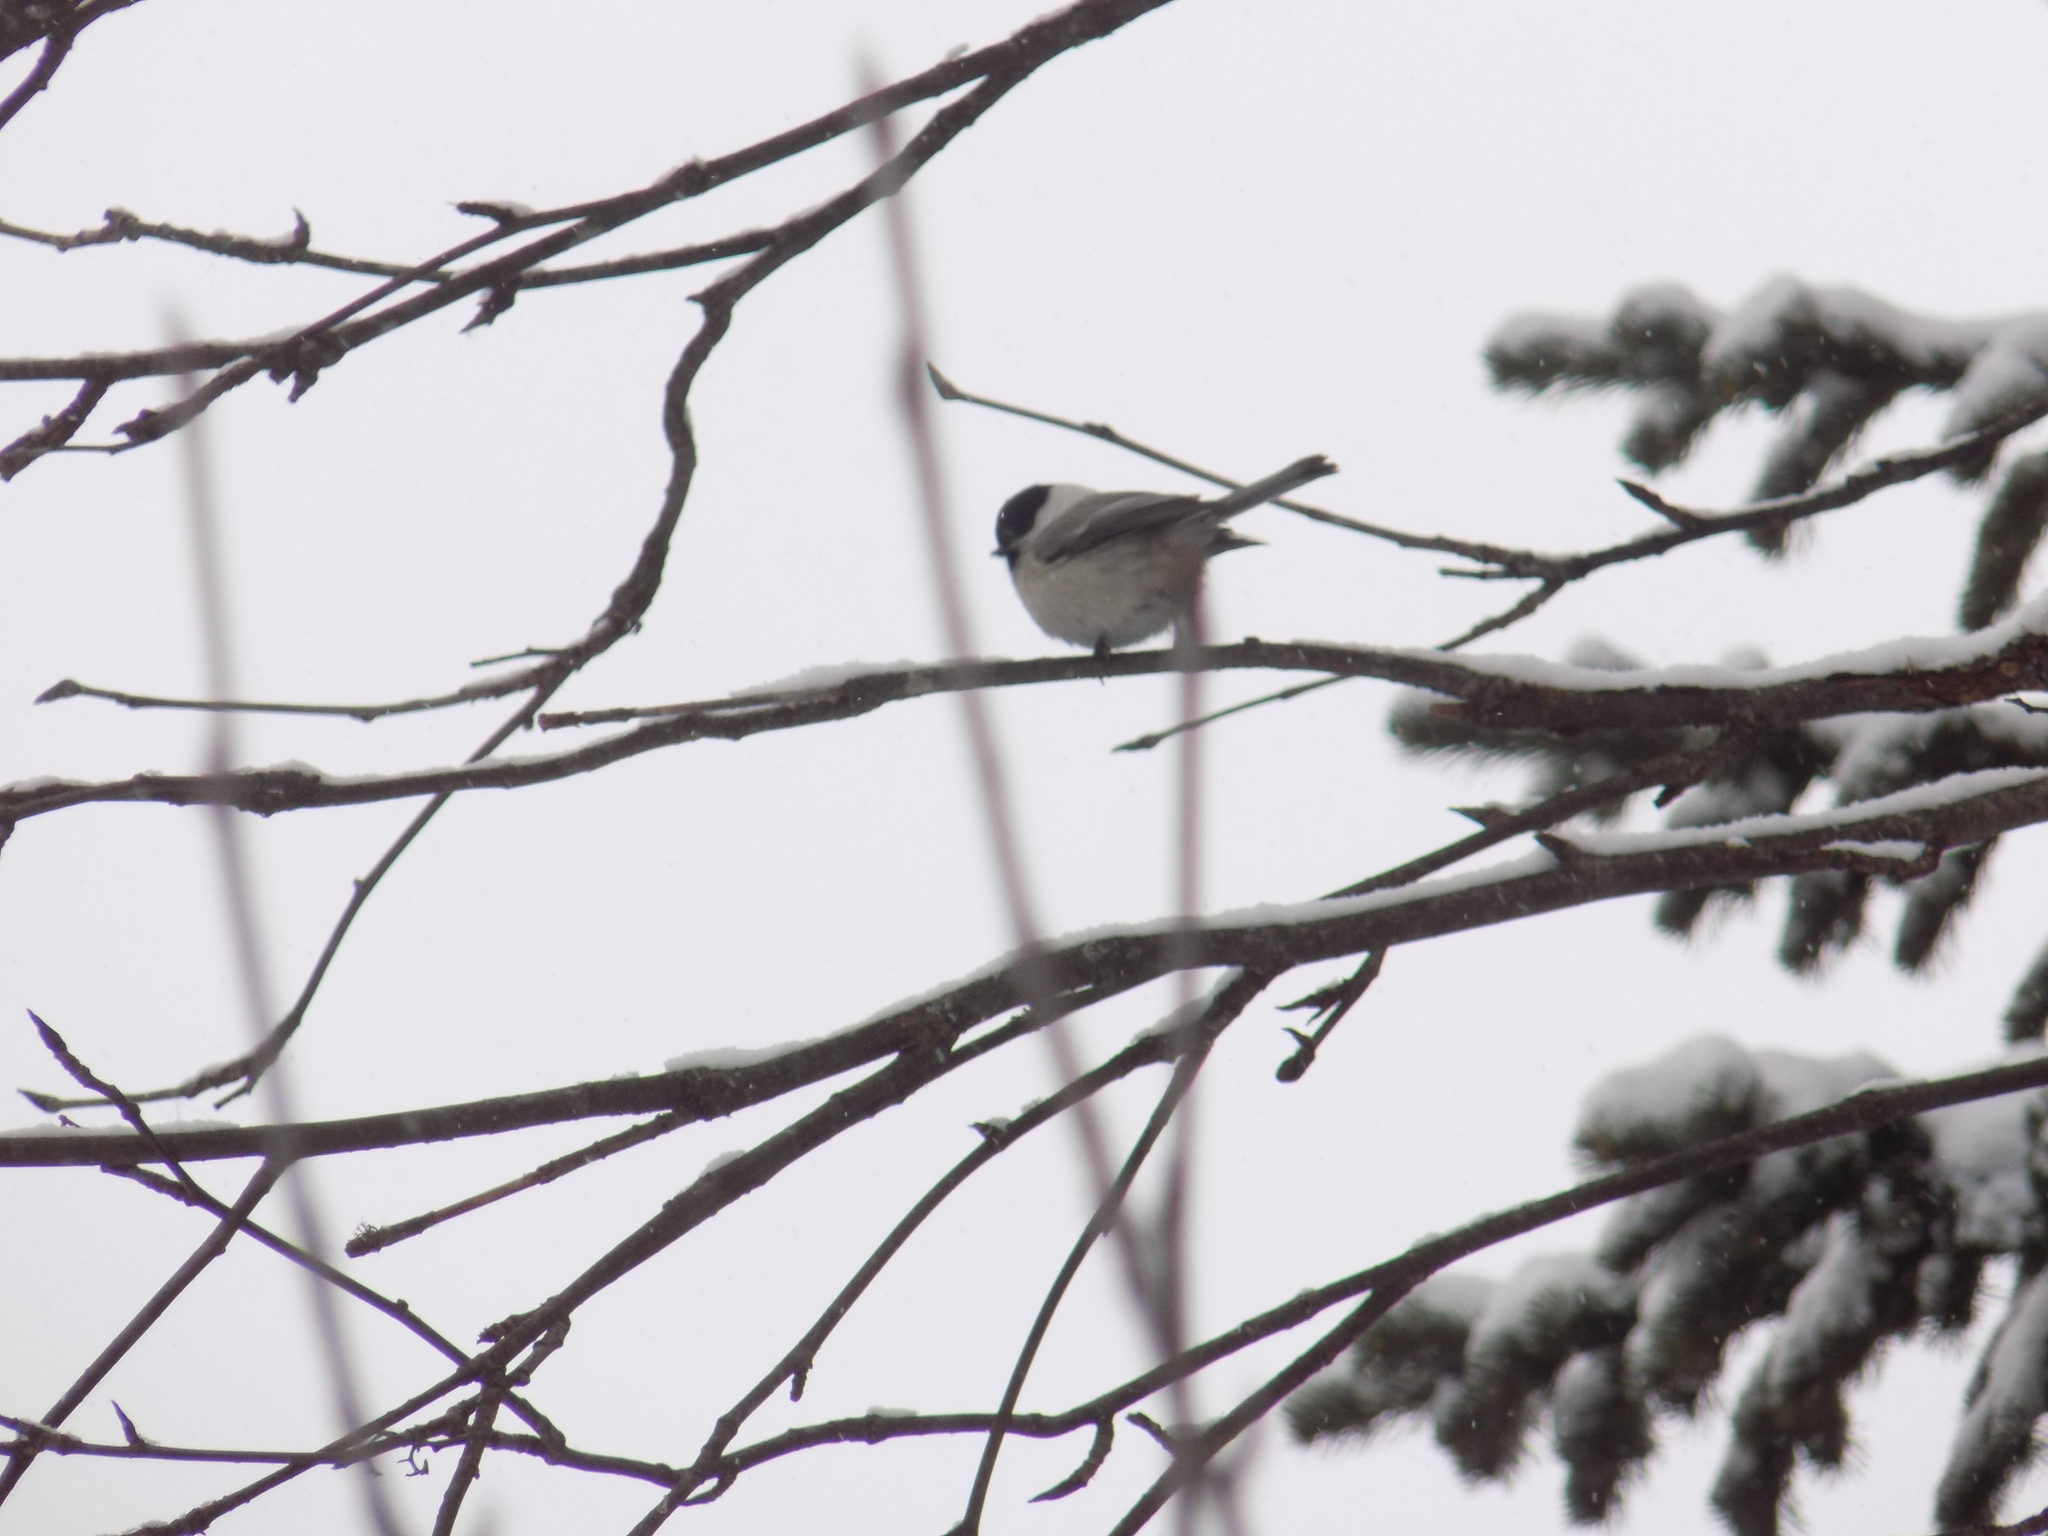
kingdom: Animalia
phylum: Chordata
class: Aves
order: Passeriformes
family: Paridae
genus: Poecile
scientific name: Poecile montanus
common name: Willow tit
